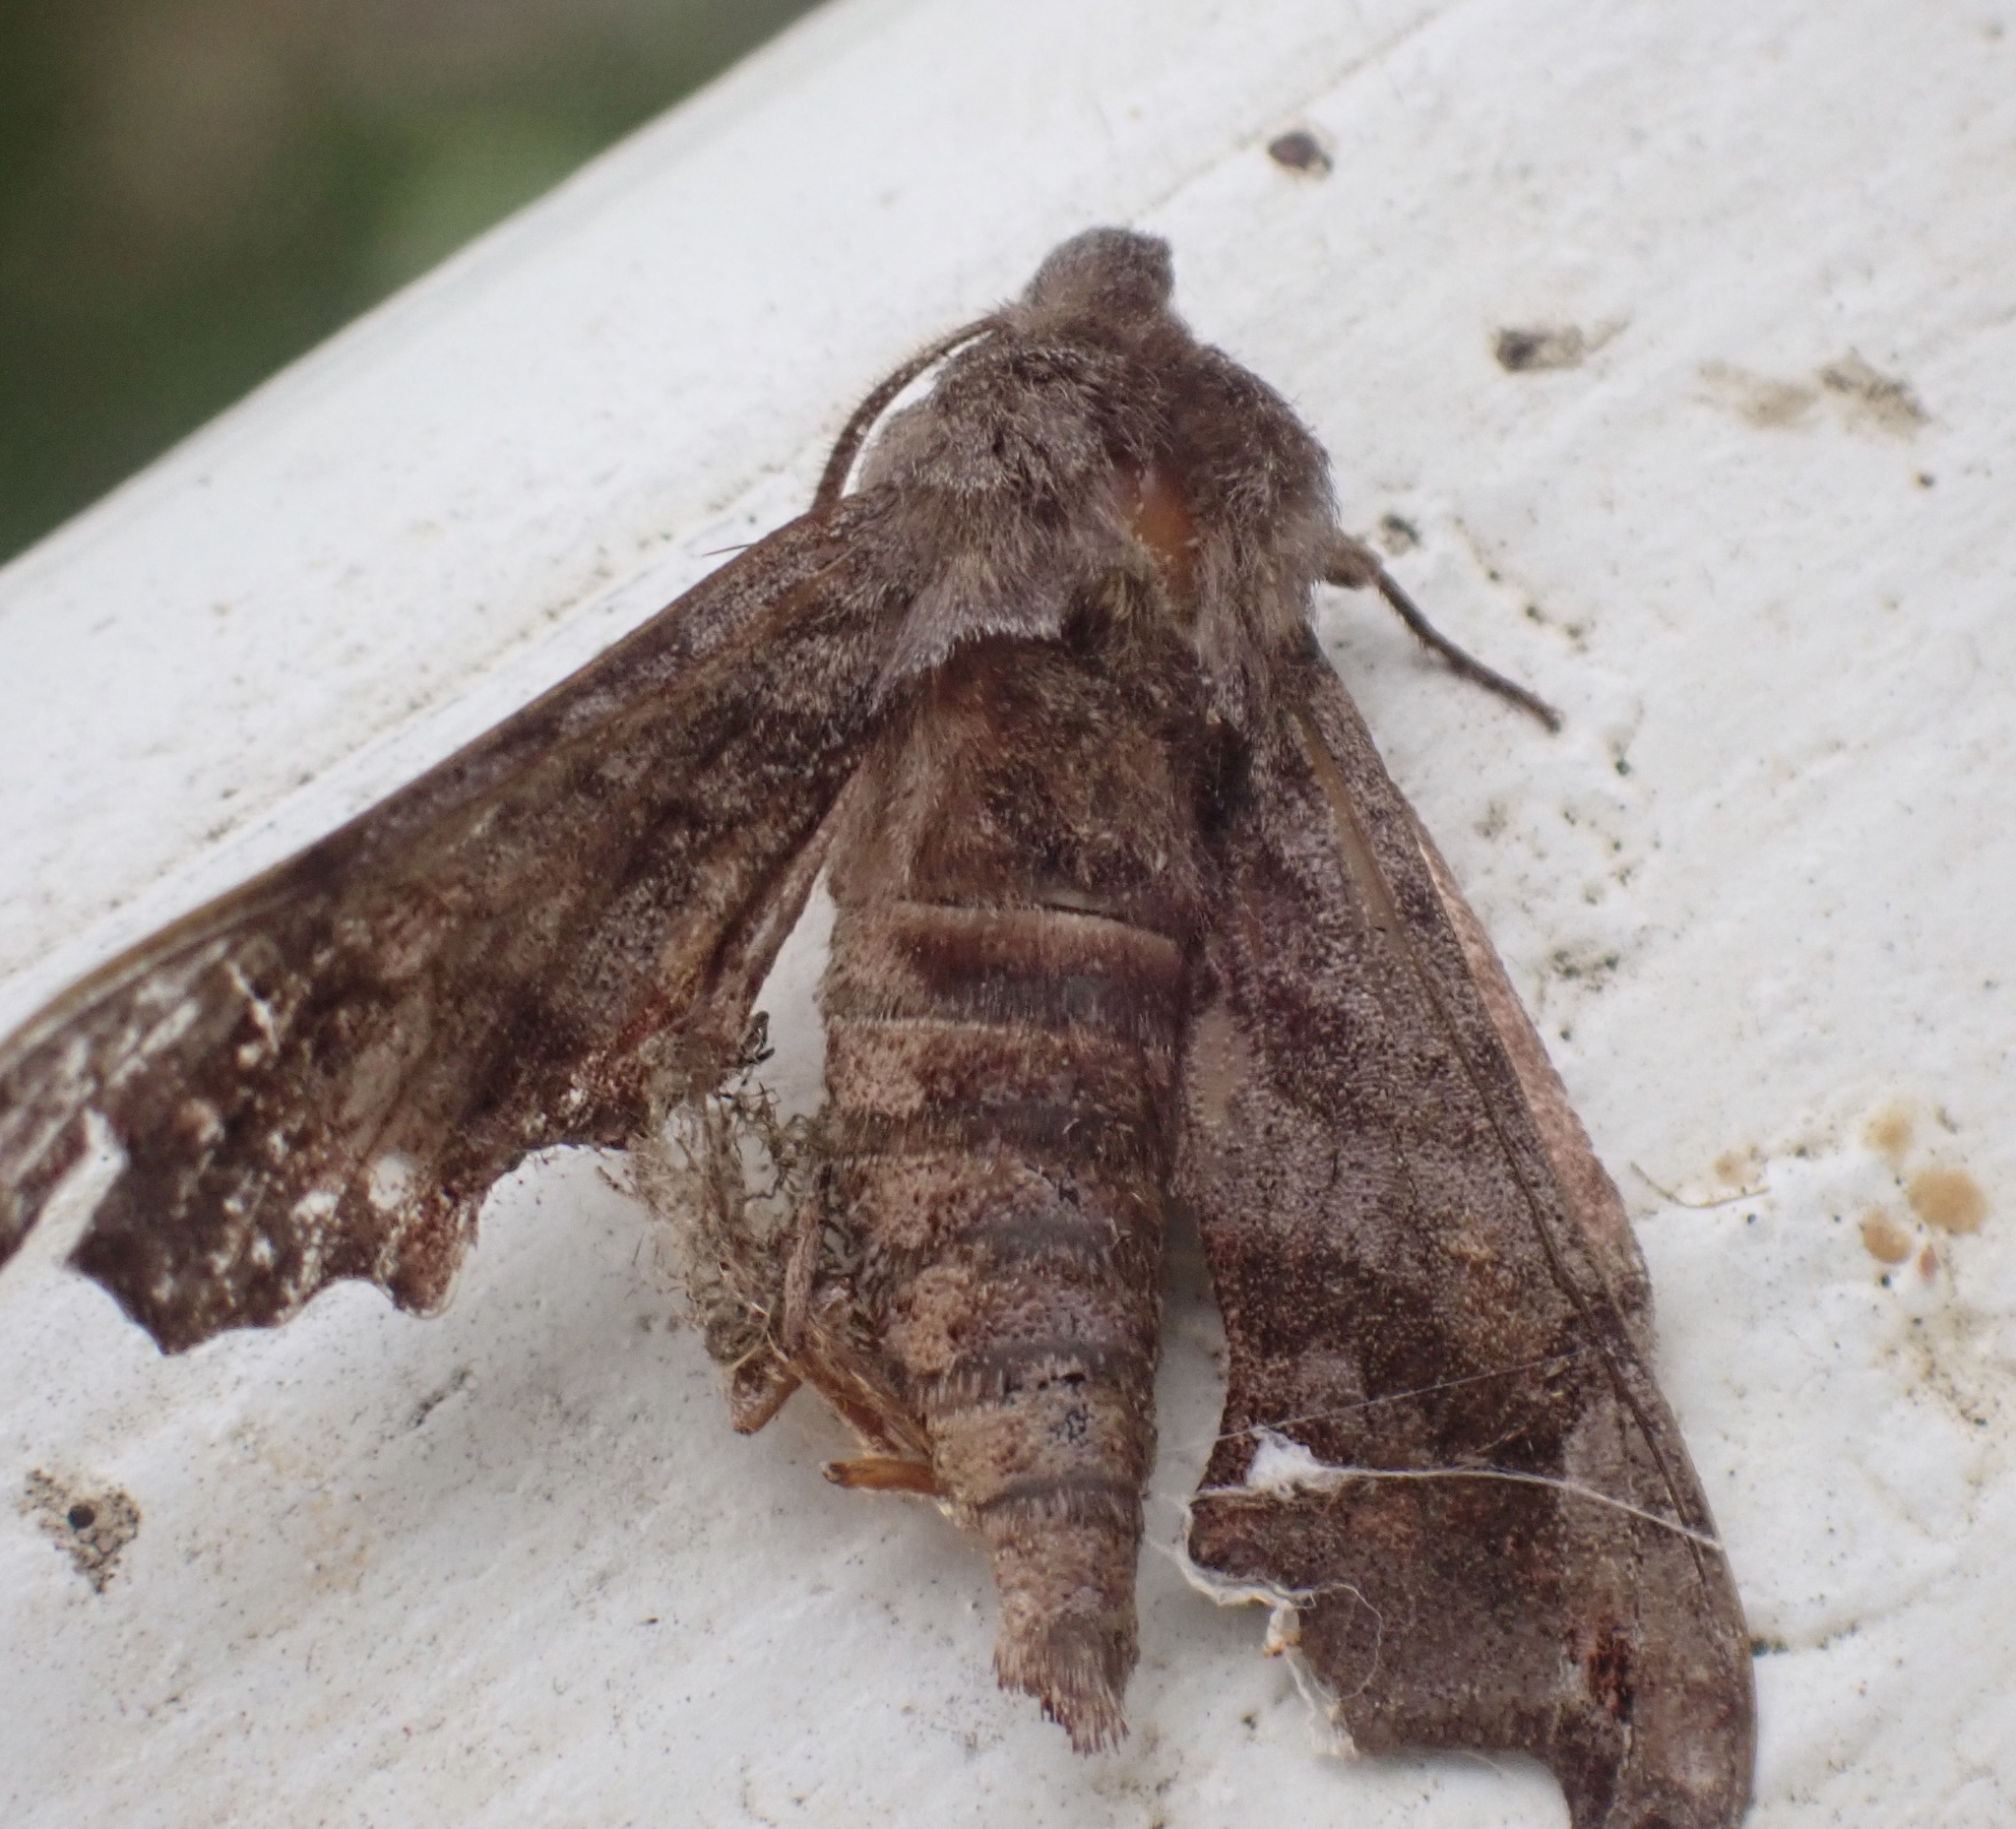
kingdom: Animalia
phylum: Arthropoda
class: Insecta
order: Lepidoptera
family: Sphingidae
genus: Deidamia
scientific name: Deidamia inscriptum
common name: Lettered sphinx
